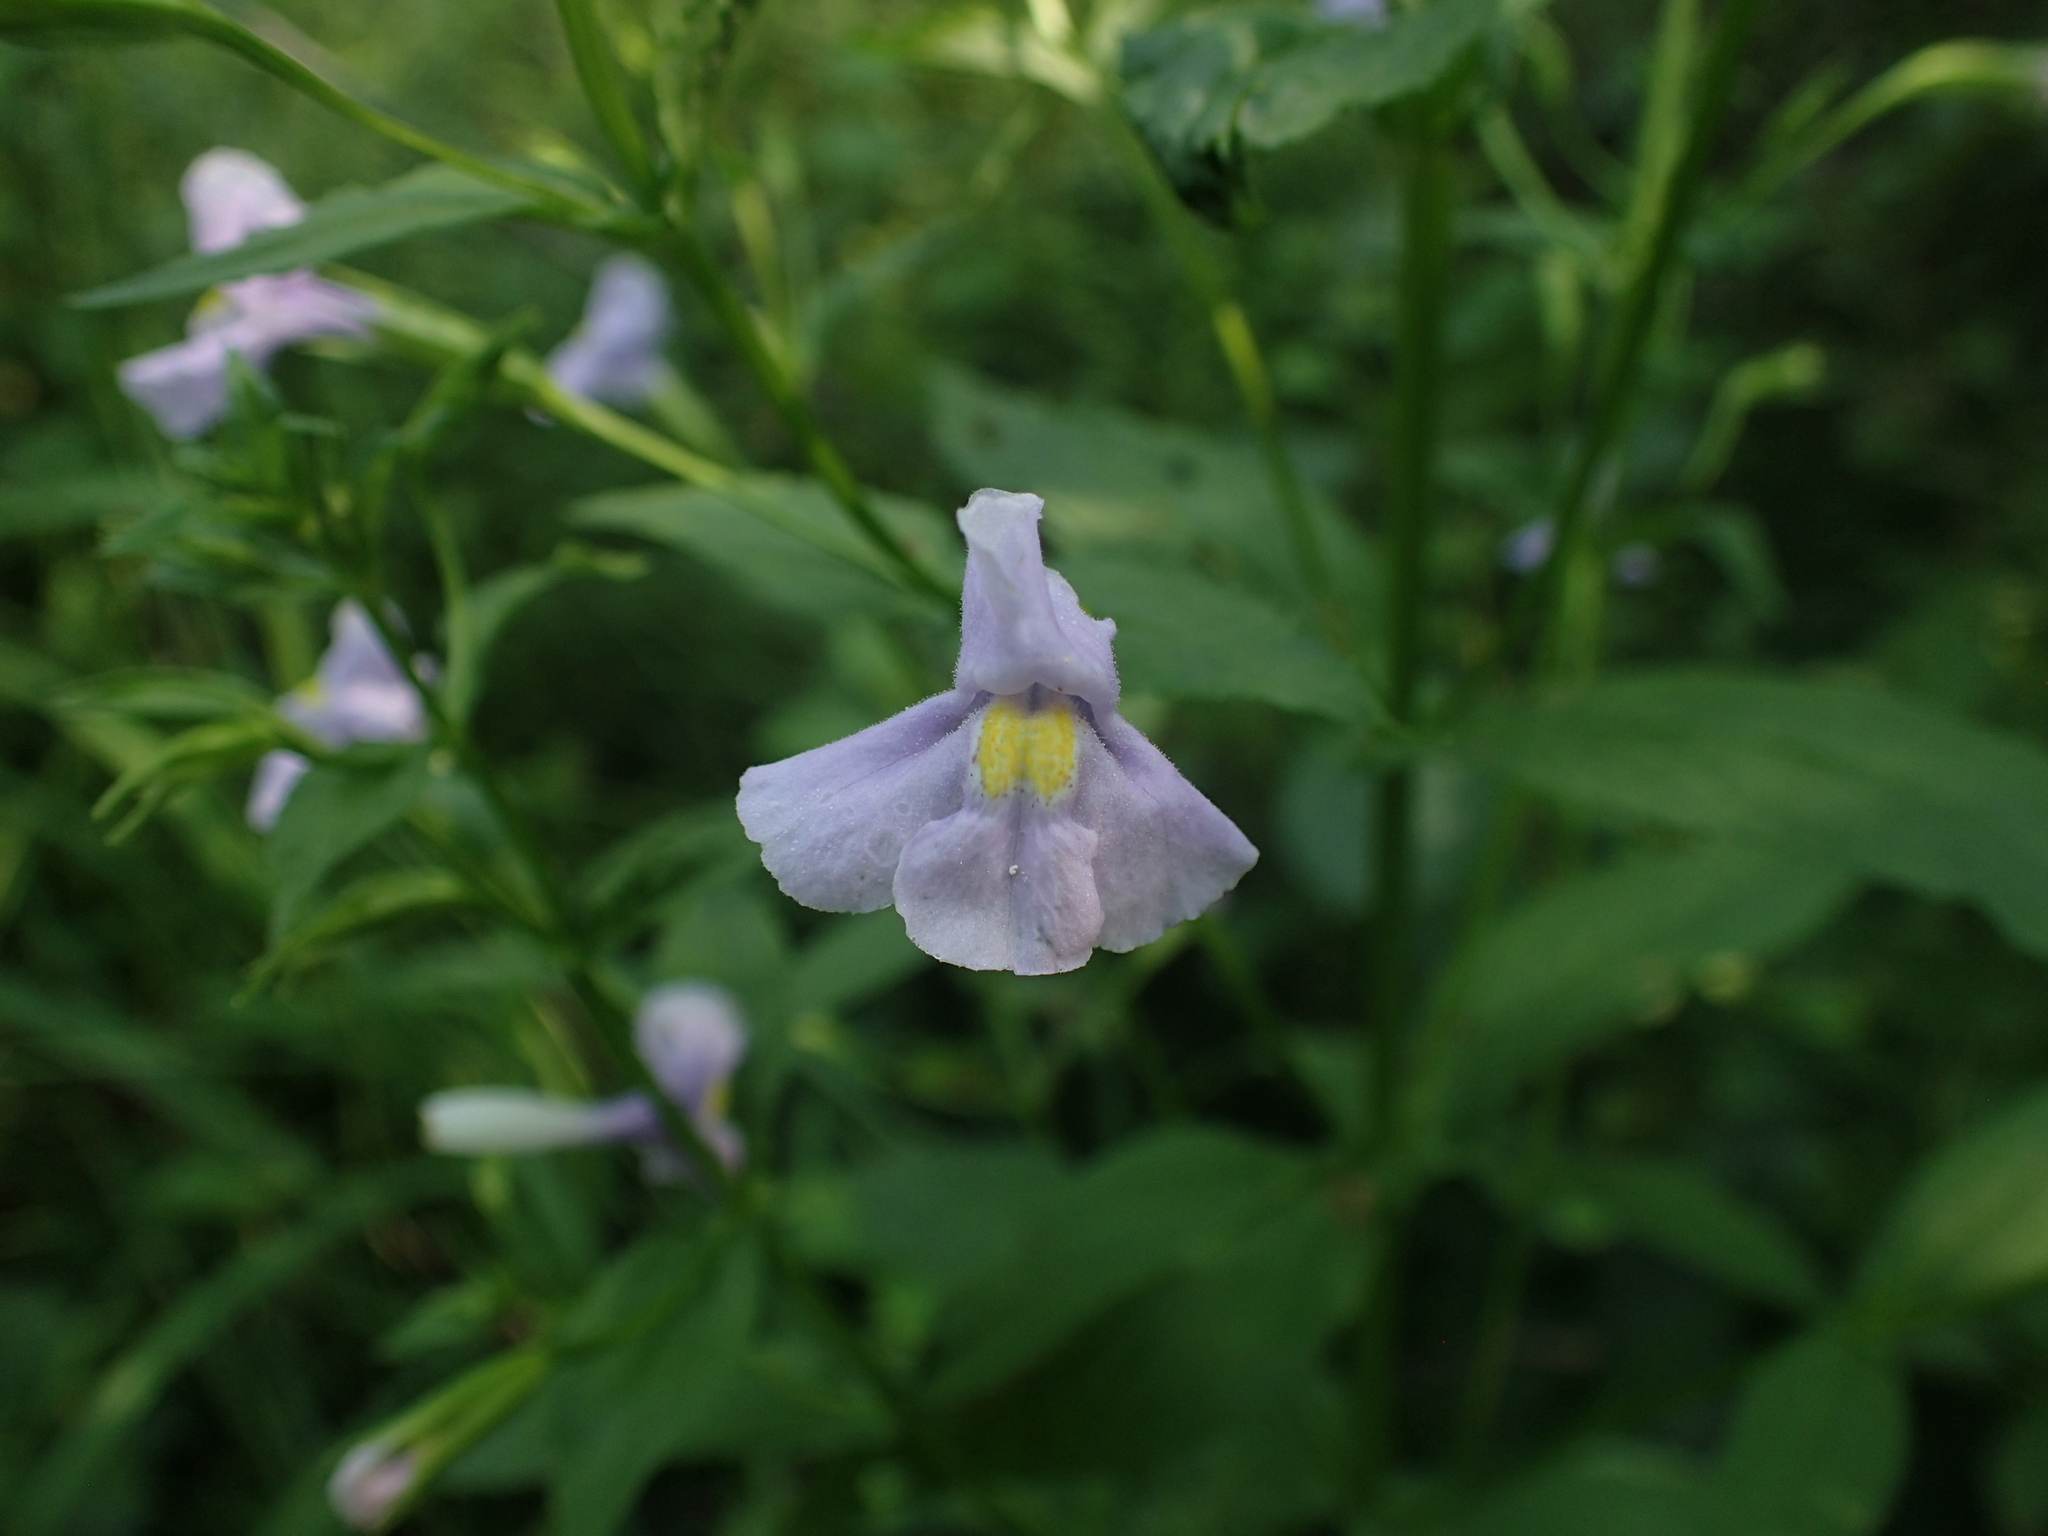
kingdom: Plantae
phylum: Tracheophyta
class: Magnoliopsida
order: Lamiales
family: Phrymaceae
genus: Mimulus
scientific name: Mimulus ringens
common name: Allegheny monkeyflower
